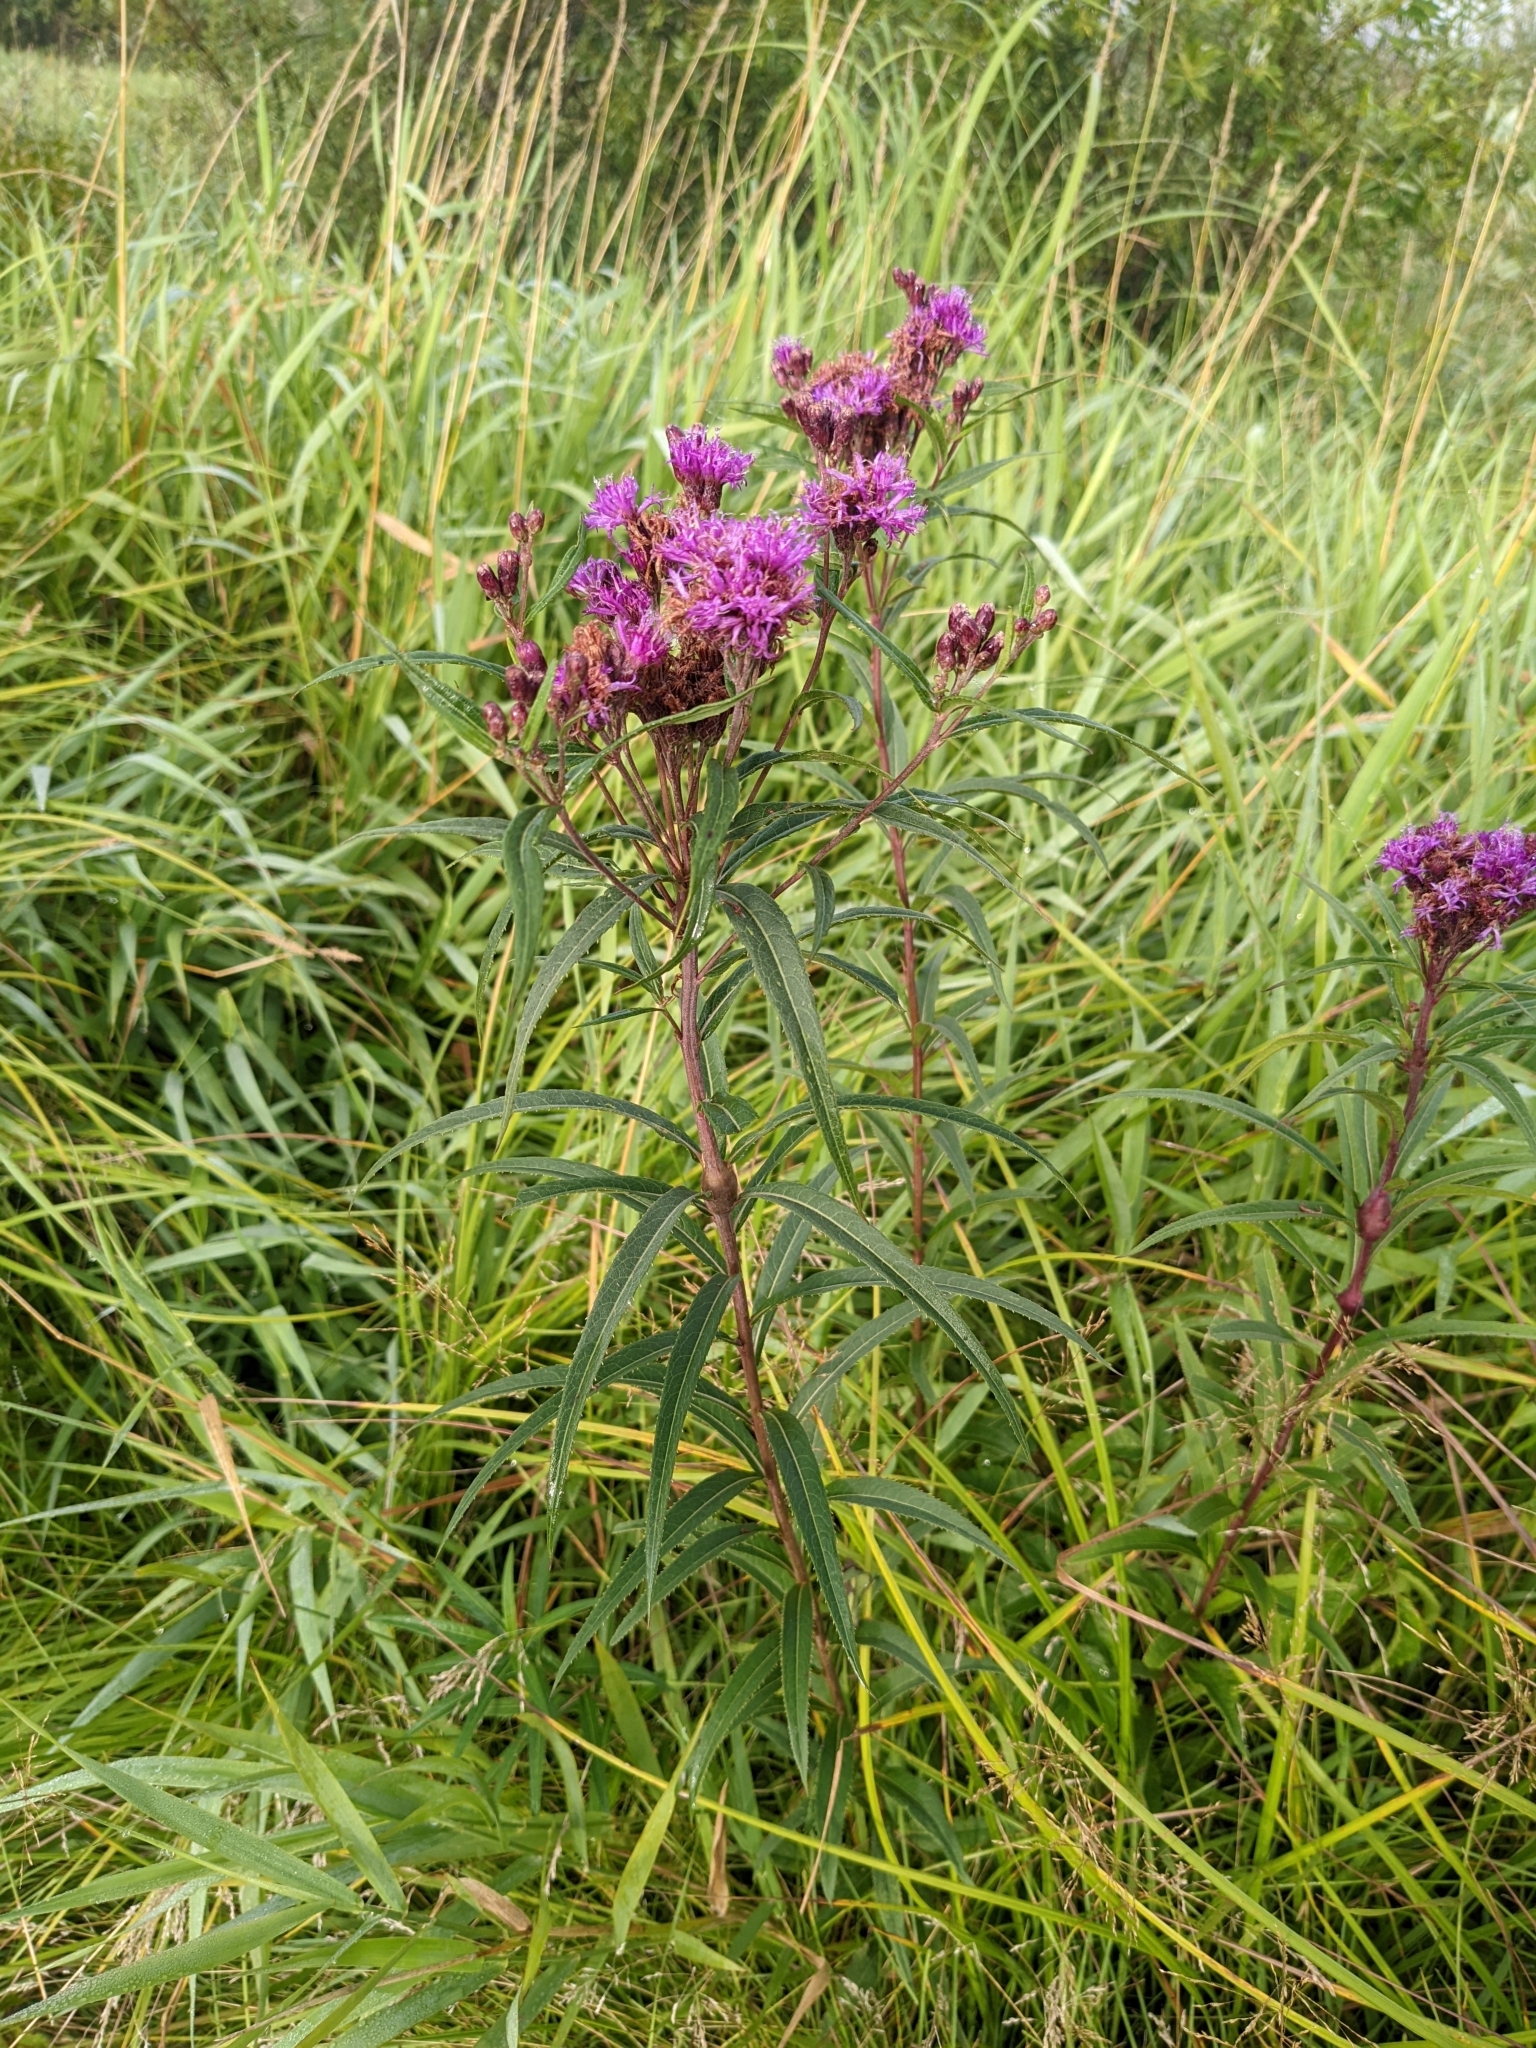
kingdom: Plantae
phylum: Tracheophyta
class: Magnoliopsida
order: Asterales
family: Asteraceae
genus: Vernonia
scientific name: Vernonia fasciculata
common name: Fascicled ironweed
